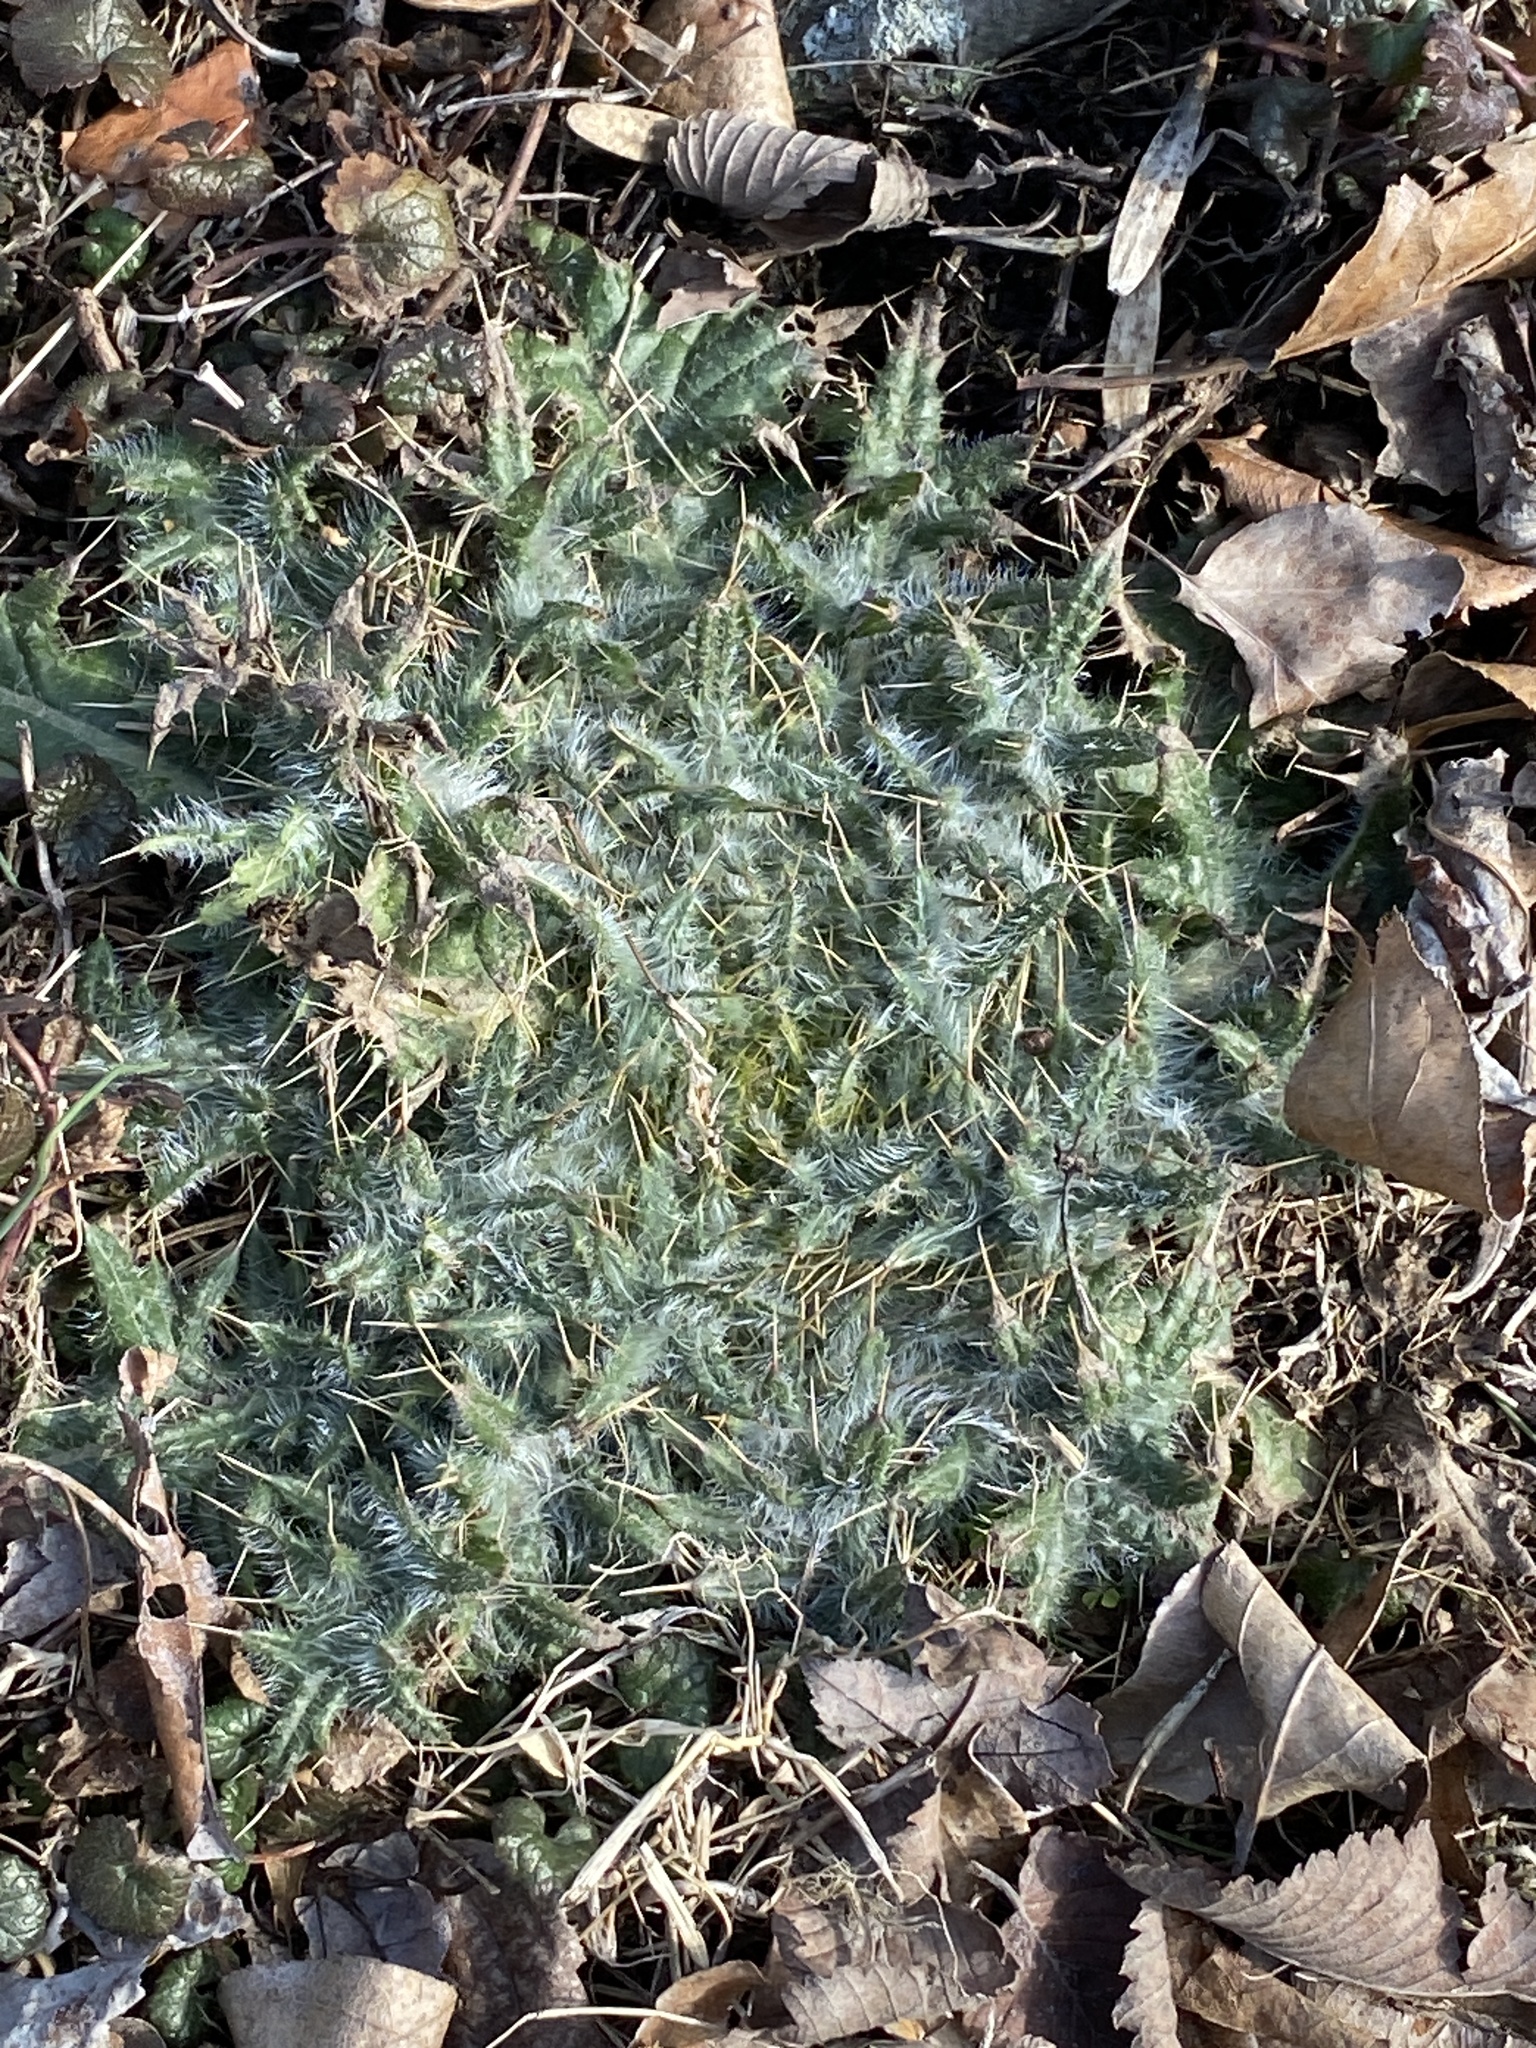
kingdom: Plantae
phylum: Tracheophyta
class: Magnoliopsida
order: Asterales
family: Asteraceae
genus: Cirsium
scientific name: Cirsium vulgare
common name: Bull thistle
